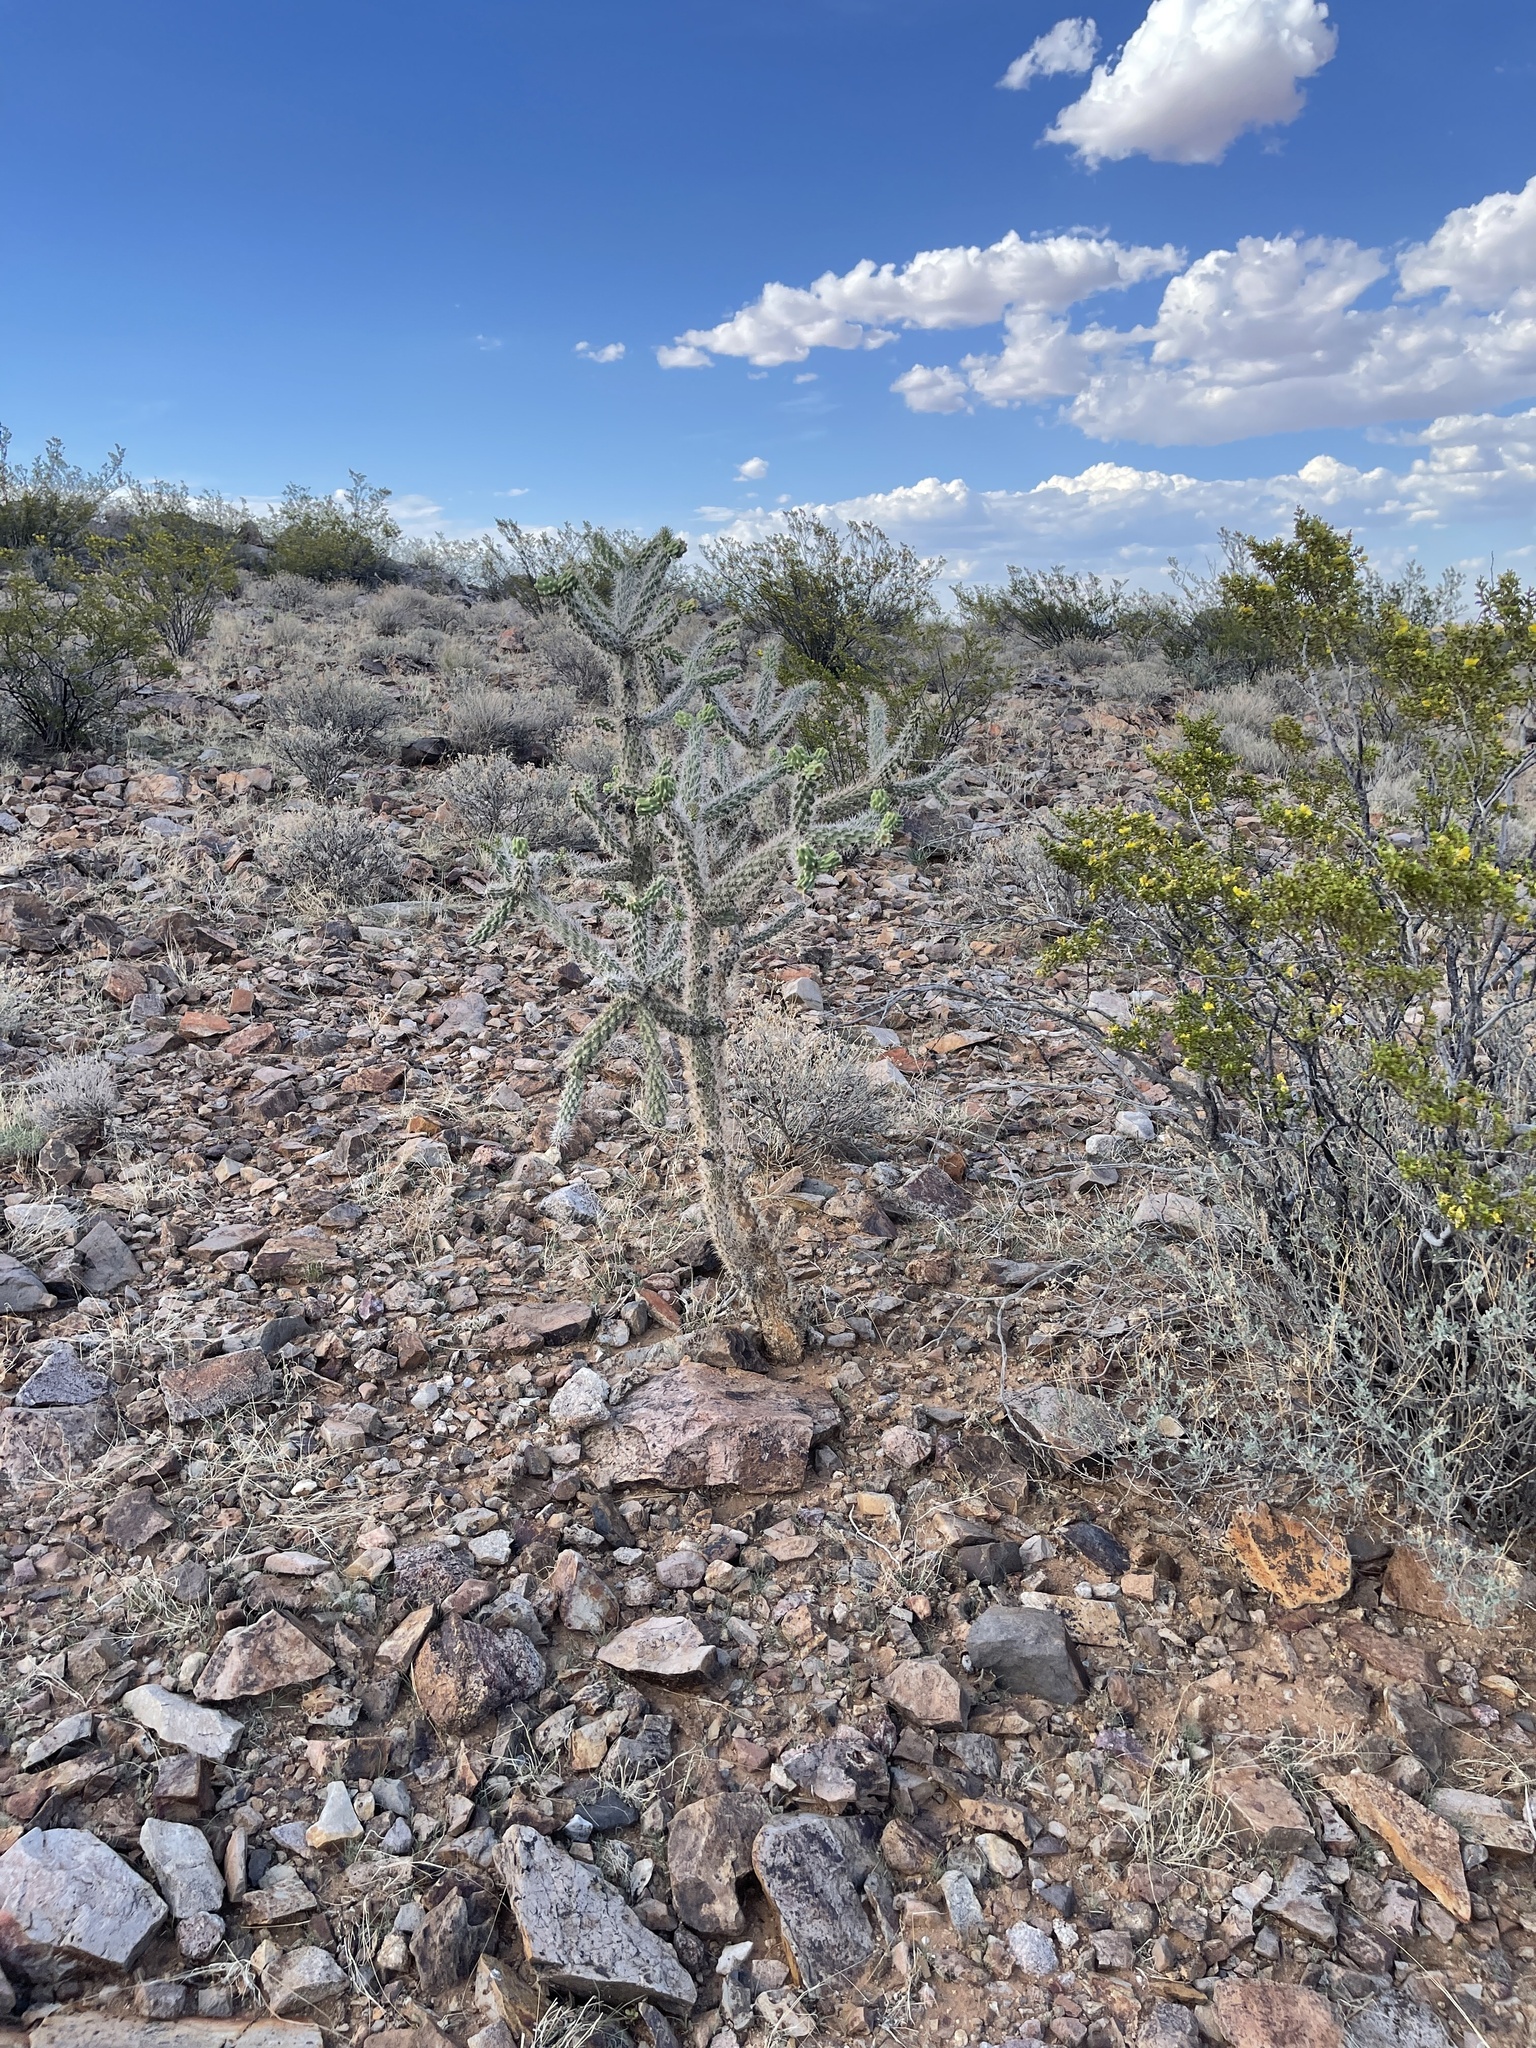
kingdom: Plantae
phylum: Tracheophyta
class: Magnoliopsida
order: Caryophyllales
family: Cactaceae
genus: Cylindropuntia
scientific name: Cylindropuntia imbricata
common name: Candelabrum cactus
